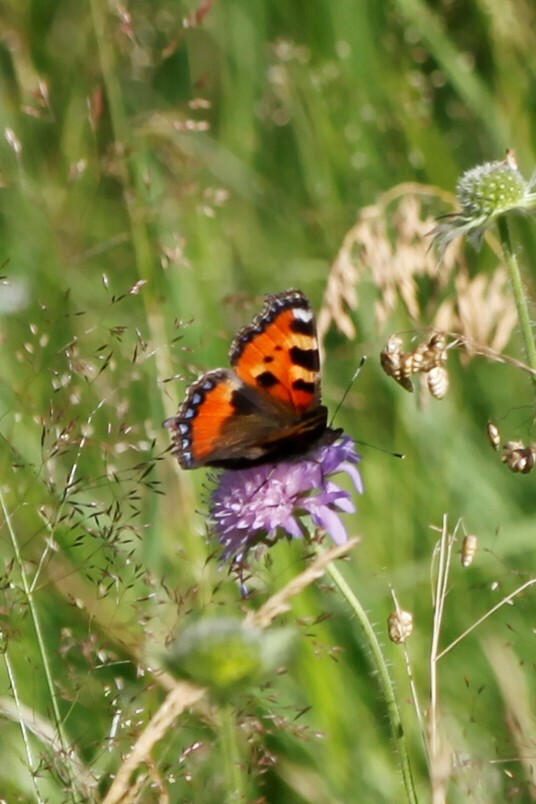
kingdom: Animalia
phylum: Arthropoda
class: Insecta
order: Lepidoptera
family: Nymphalidae
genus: Aglais
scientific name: Aglais urticae
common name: Small tortoiseshell
